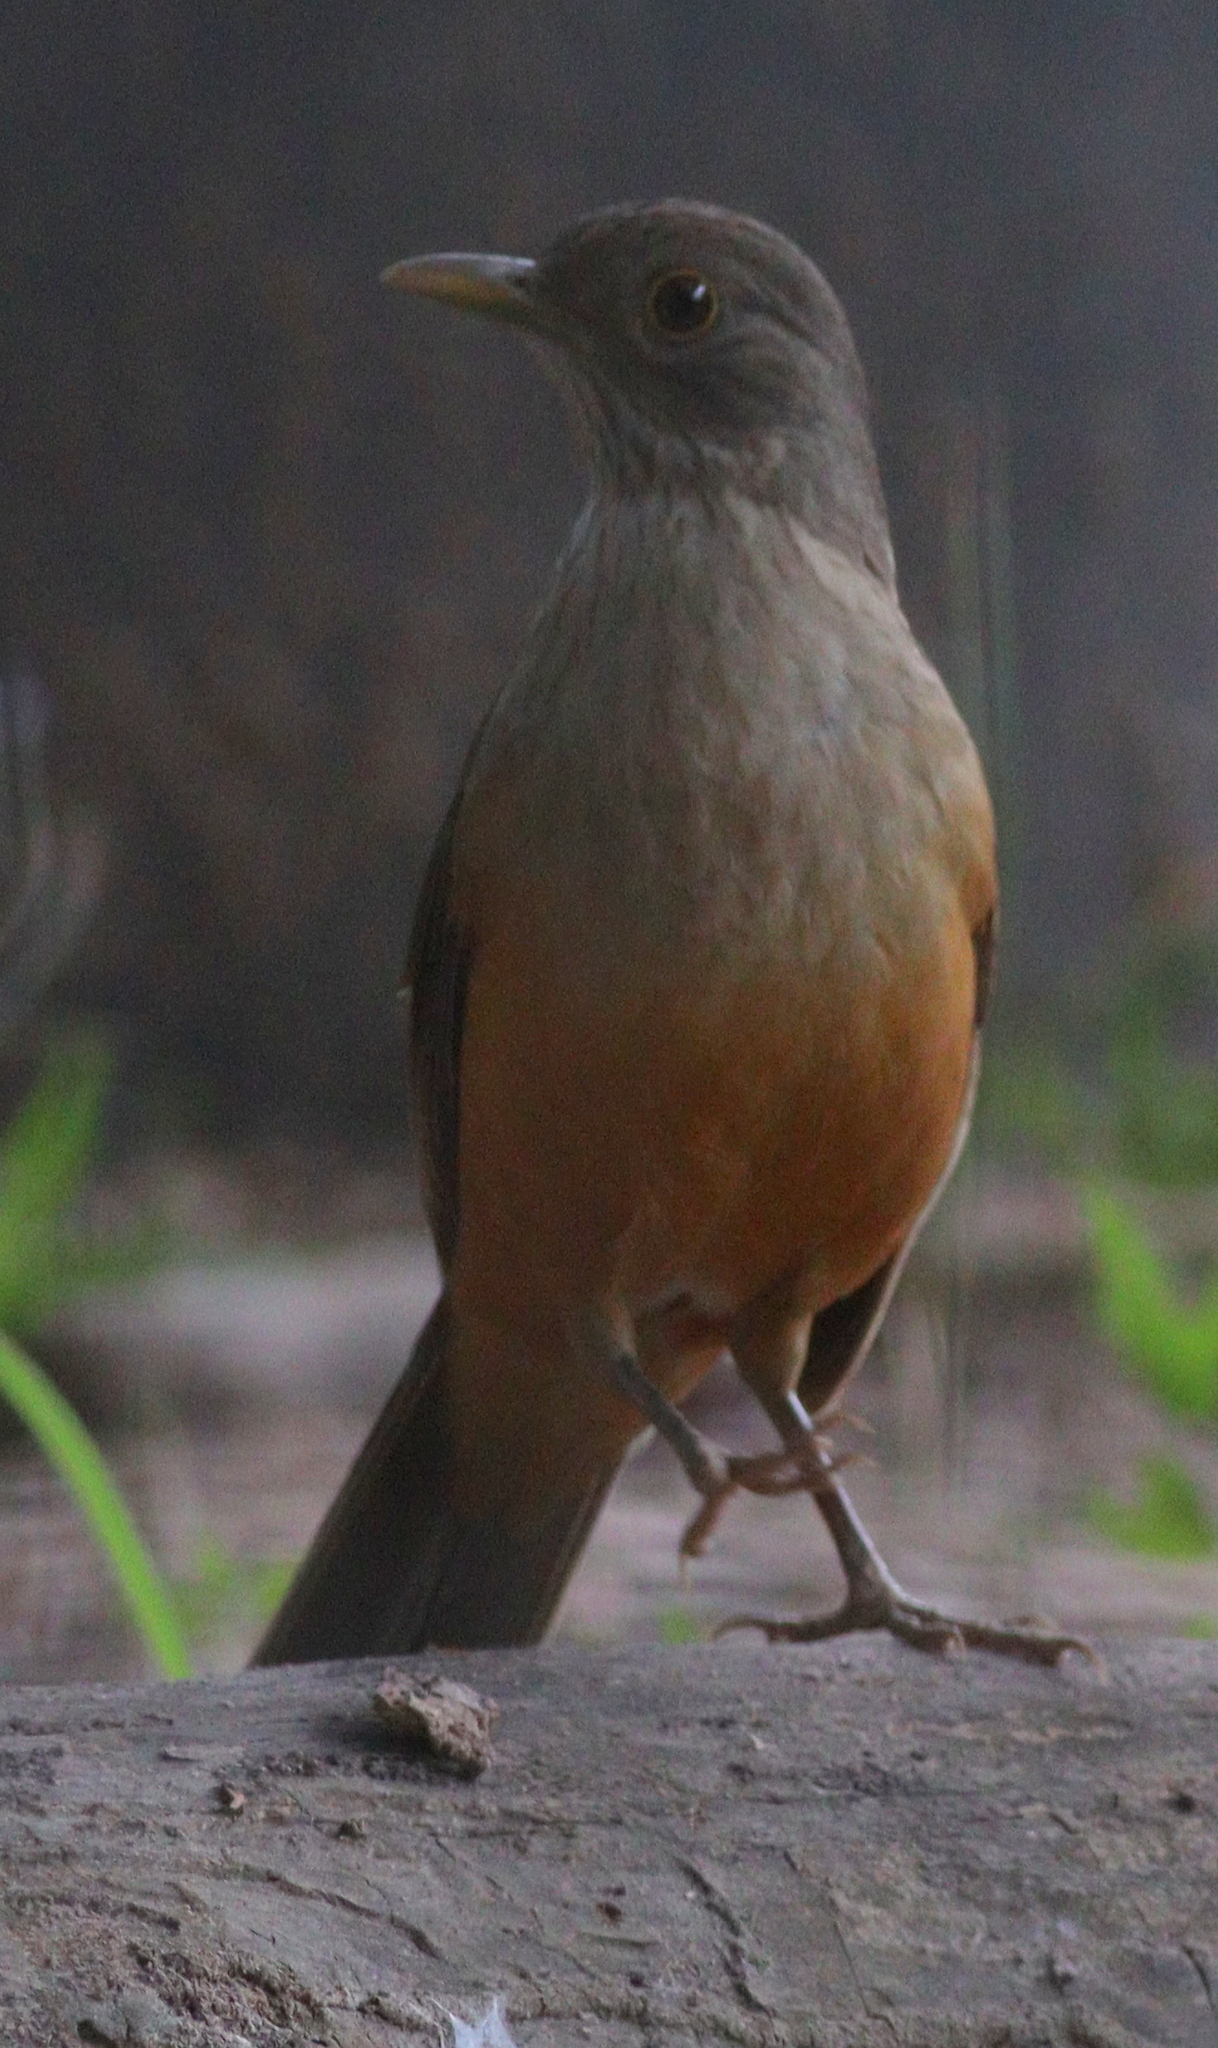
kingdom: Animalia
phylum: Chordata
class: Aves
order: Passeriformes
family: Turdidae
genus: Turdus
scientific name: Turdus rufiventris
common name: Rufous-bellied thrush
